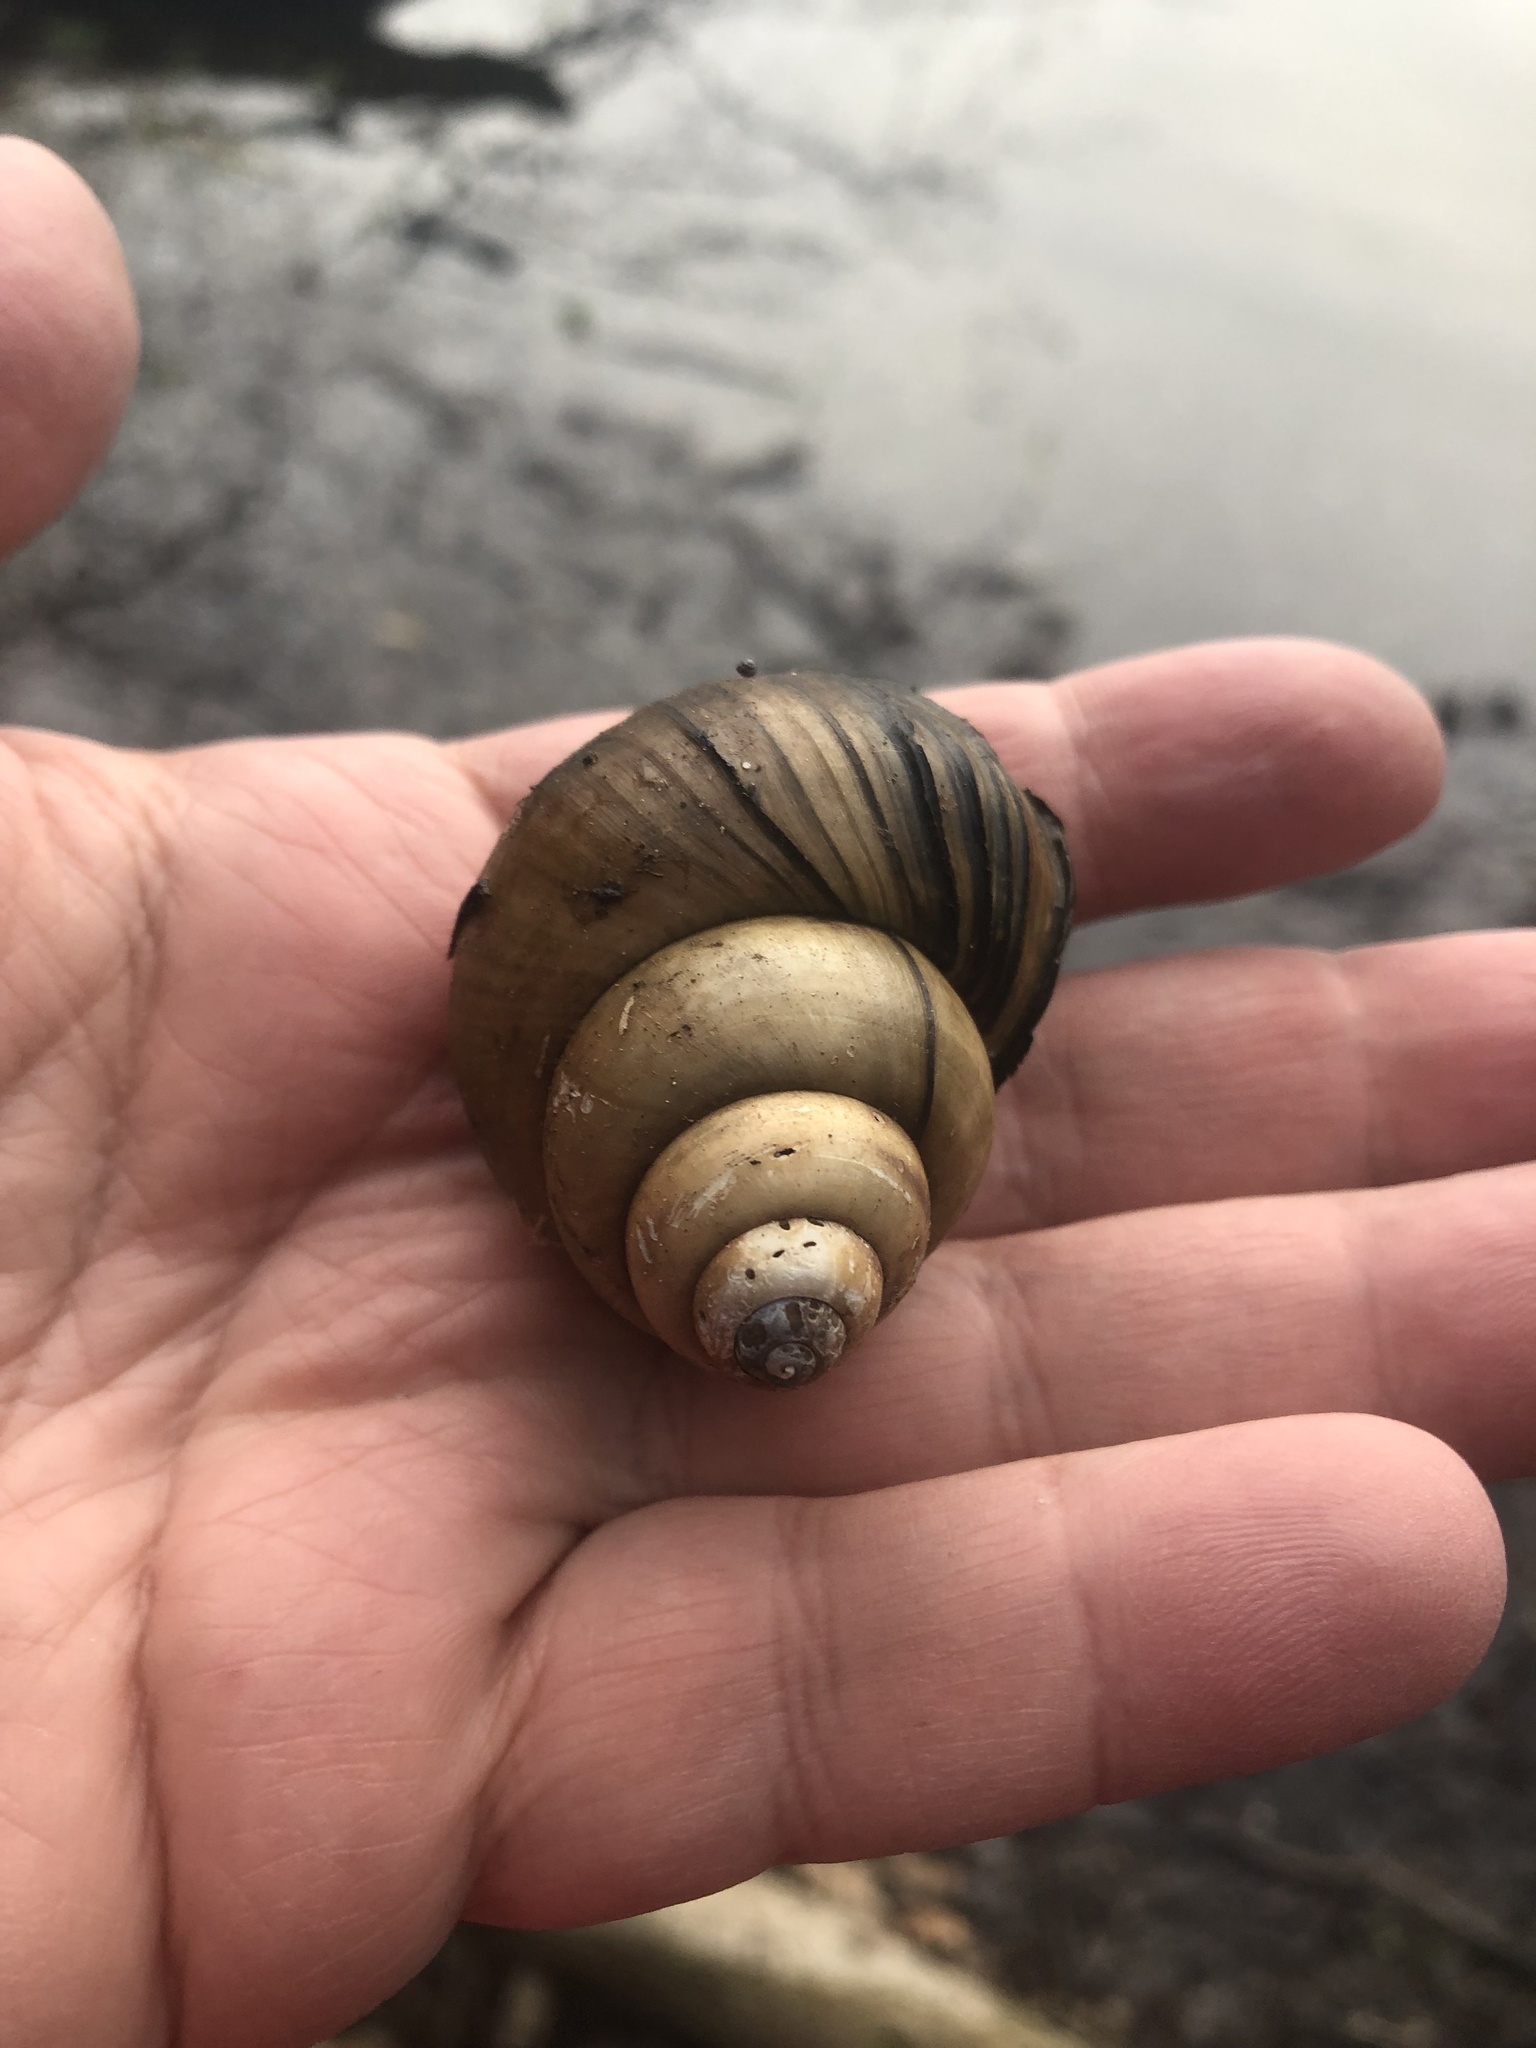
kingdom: Animalia
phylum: Mollusca
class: Gastropoda
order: Architaenioglossa
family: Viviparidae
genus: Cipangopaludina
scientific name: Cipangopaludina chinensis
